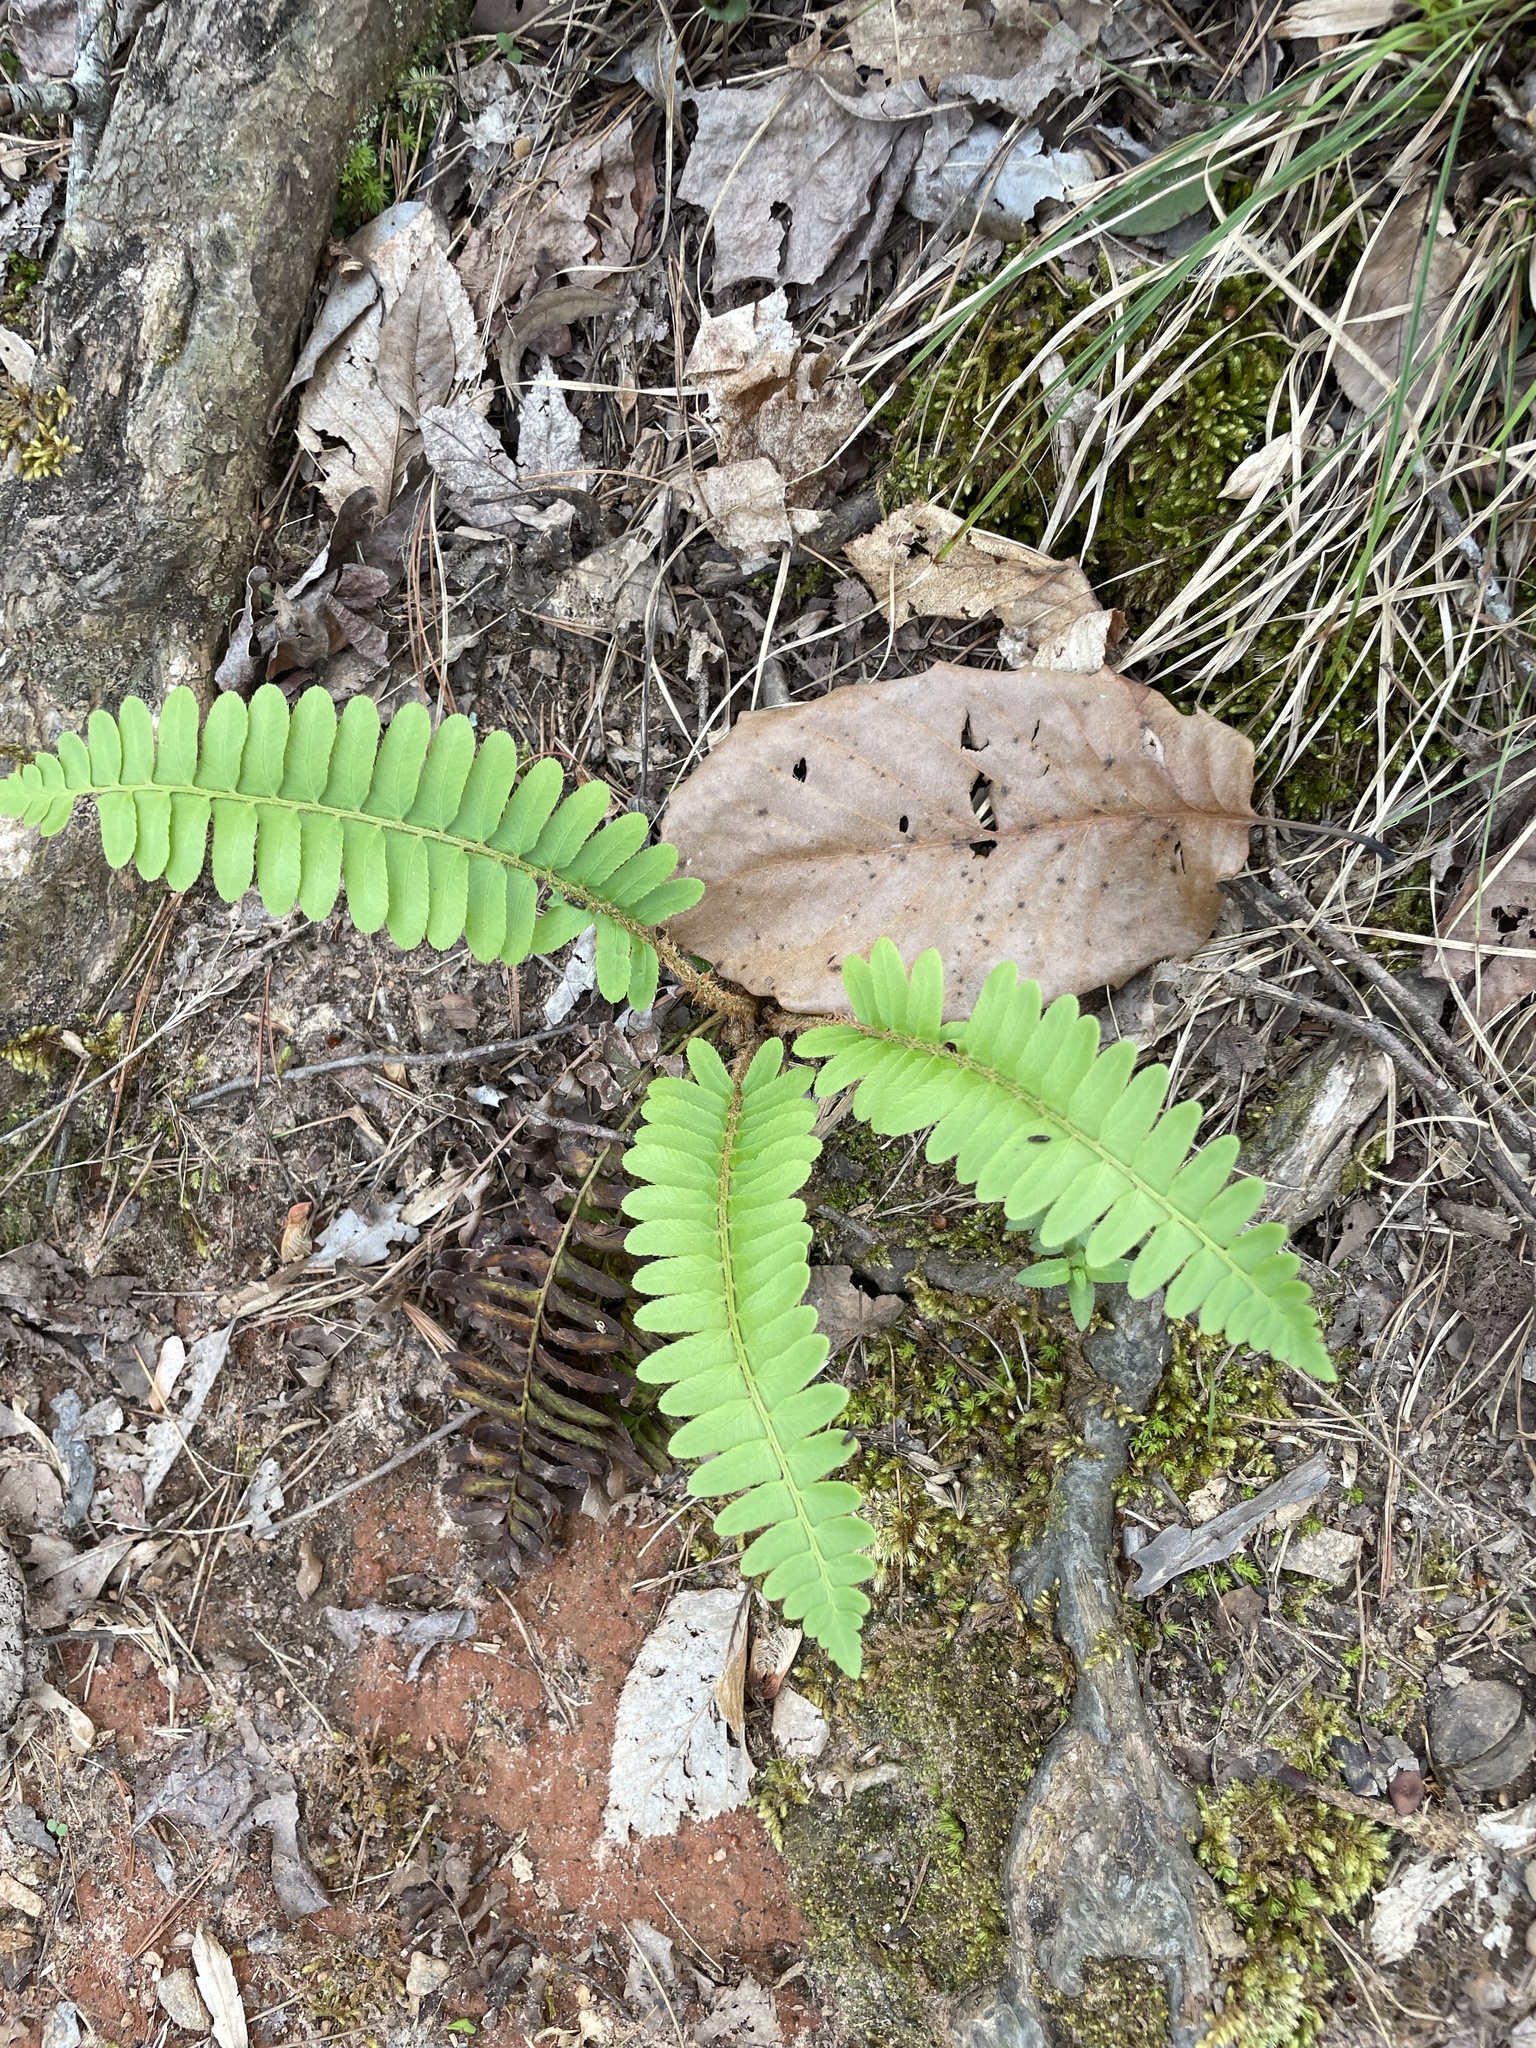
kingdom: Plantae
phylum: Tracheophyta
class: Polypodiopsida
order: Polypodiales
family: Dryopteridaceae
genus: Polystichum
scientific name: Polystichum acrostichoides
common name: Christmas fern
